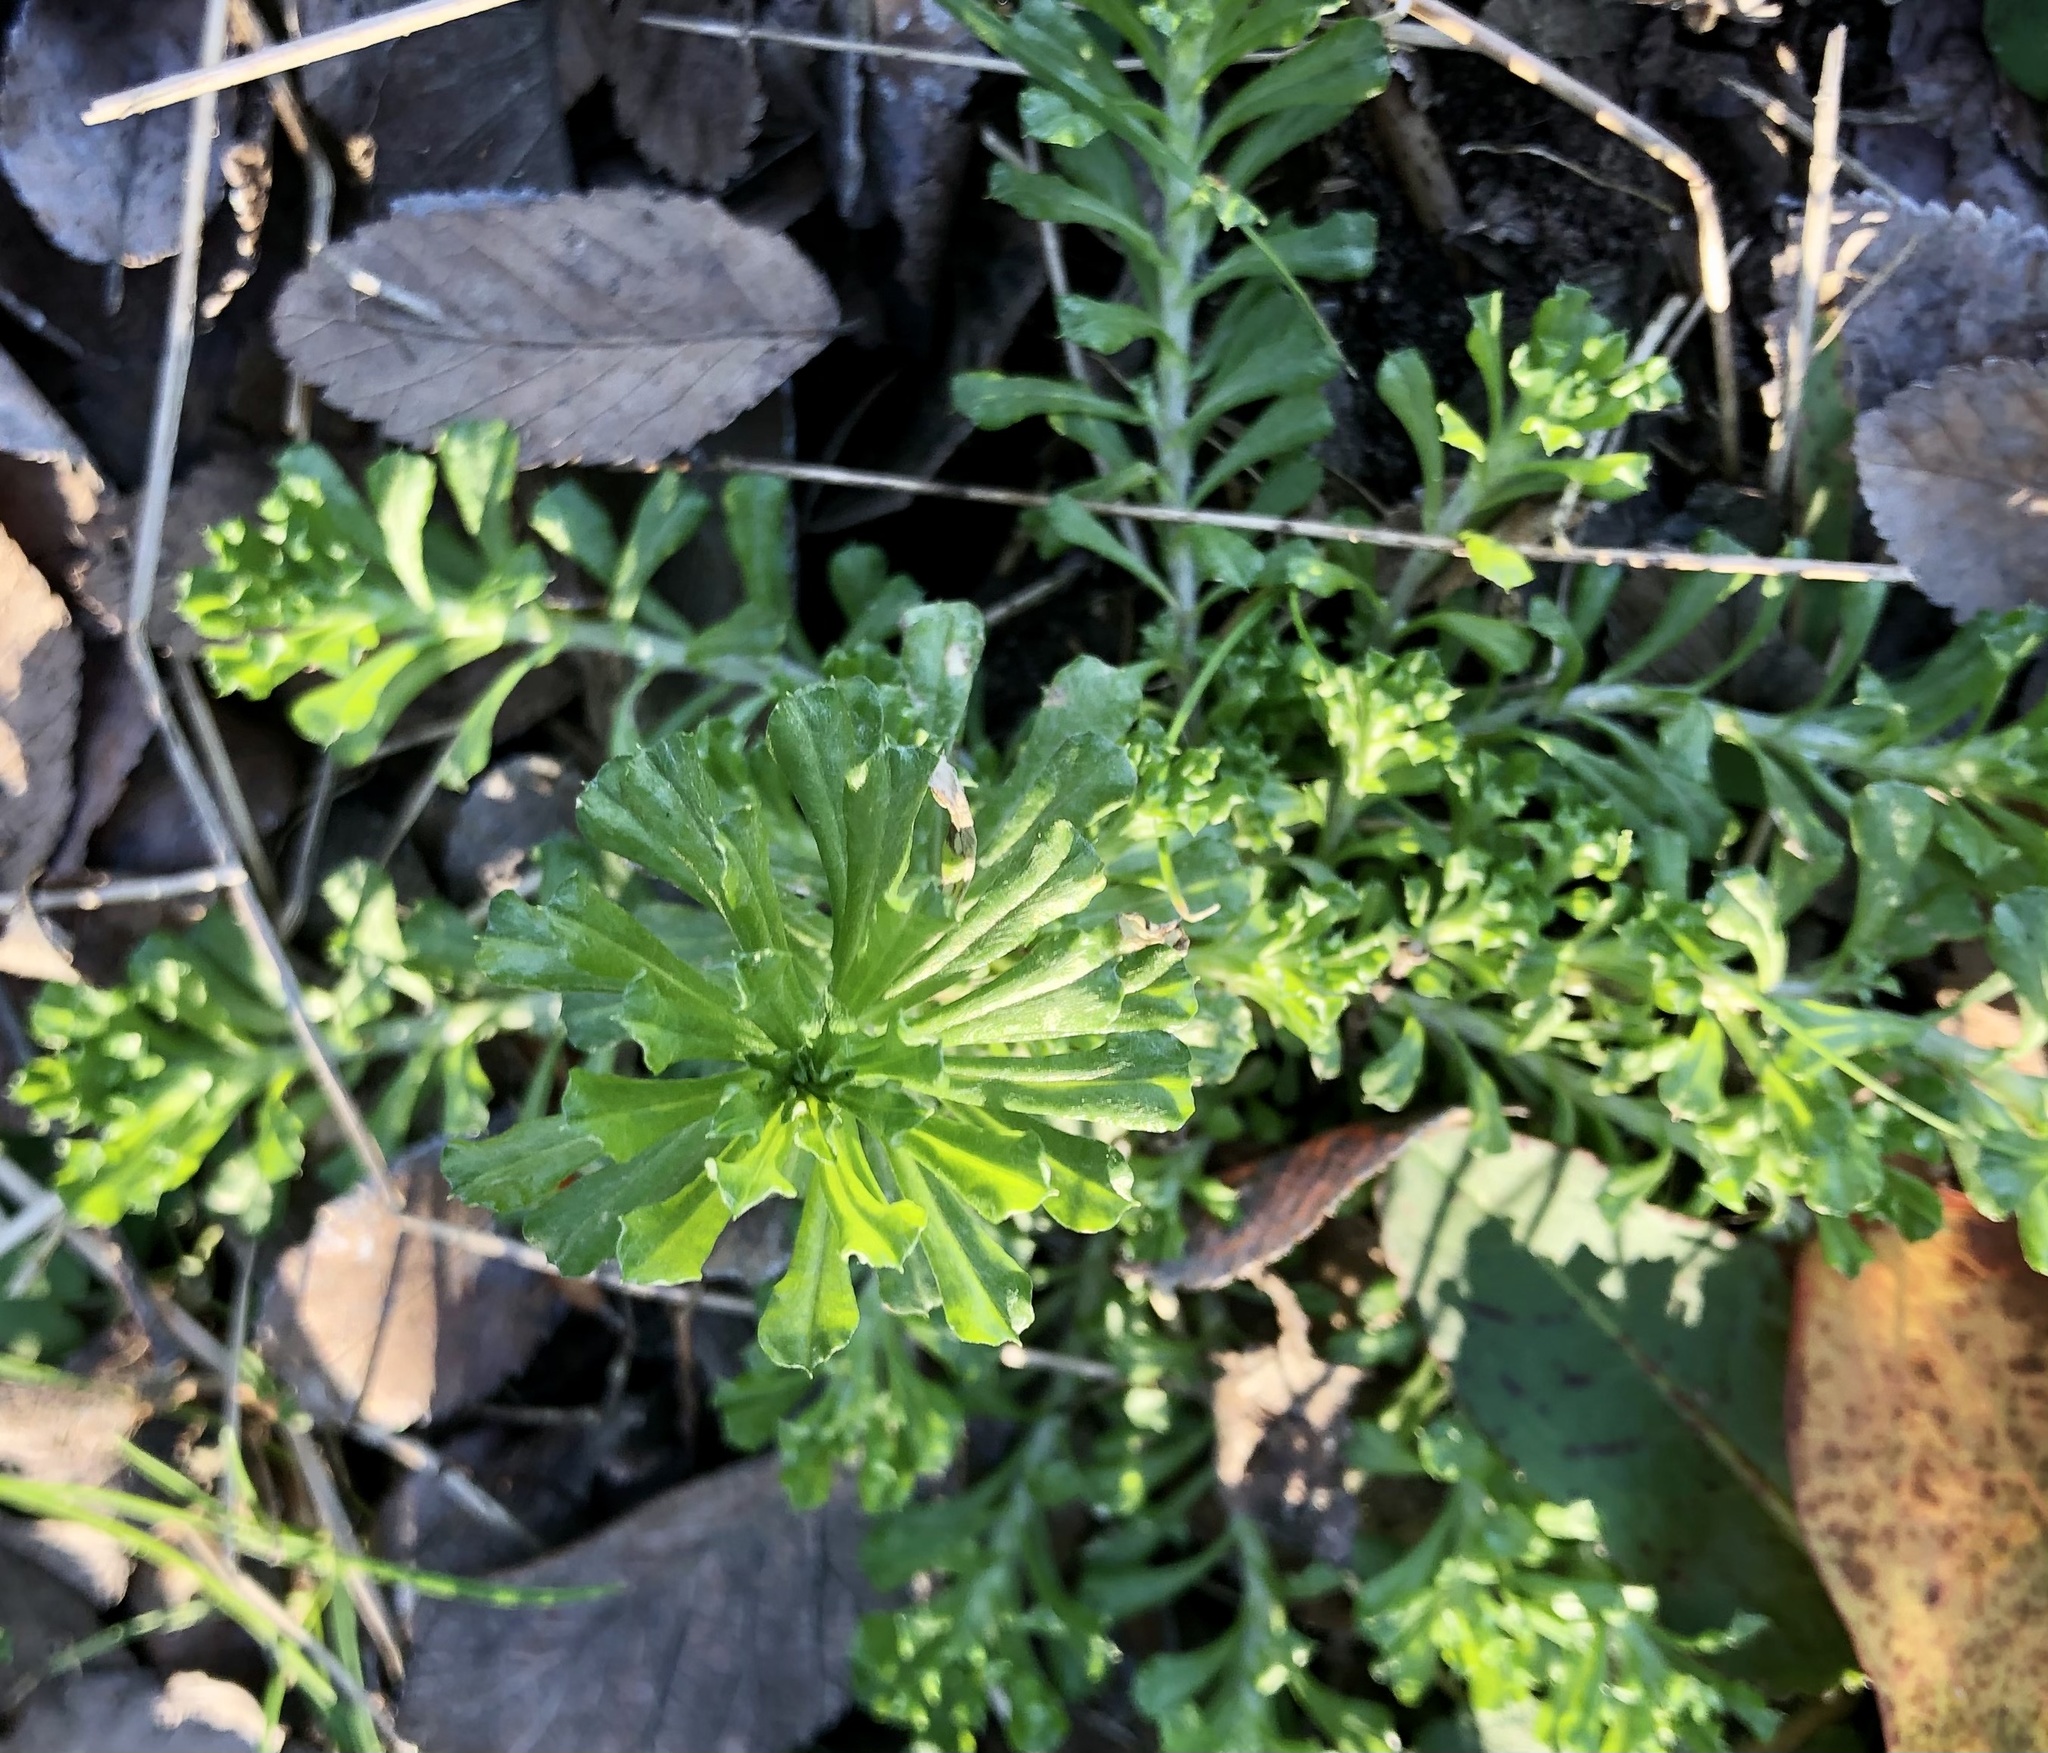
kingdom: Plantae
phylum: Tracheophyta
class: Magnoliopsida
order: Asterales
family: Asteraceae
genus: Facelis
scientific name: Facelis retusa
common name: Annual trampweed
